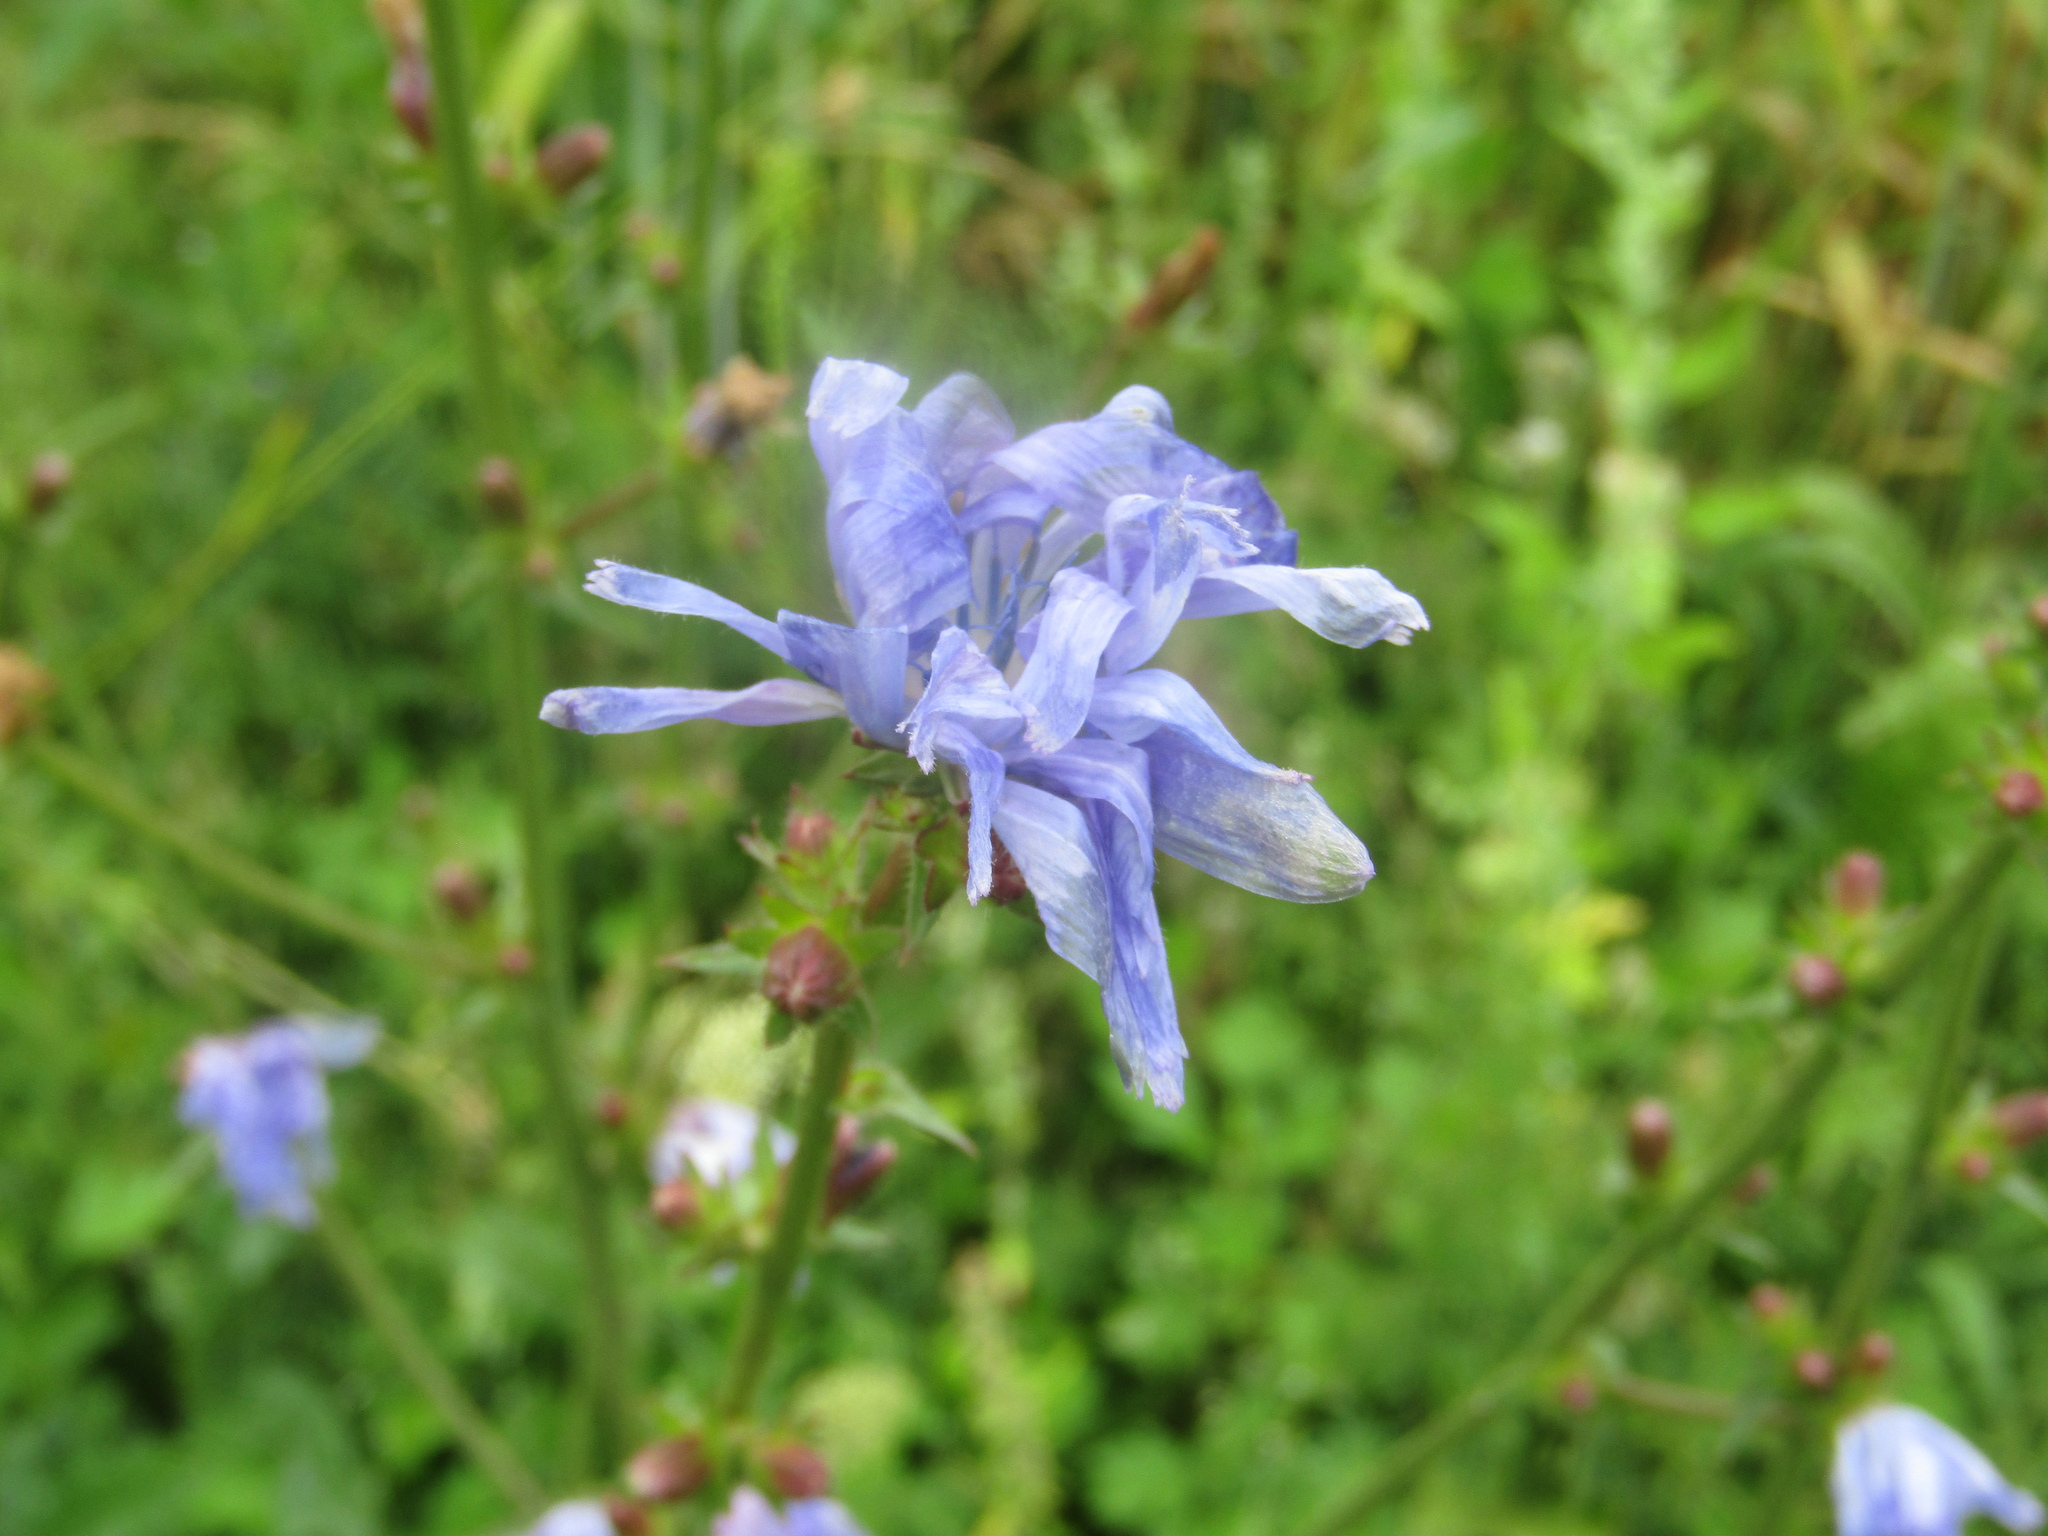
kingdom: Plantae
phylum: Tracheophyta
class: Magnoliopsida
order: Asterales
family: Asteraceae
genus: Cichorium
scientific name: Cichorium intybus
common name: Chicory
